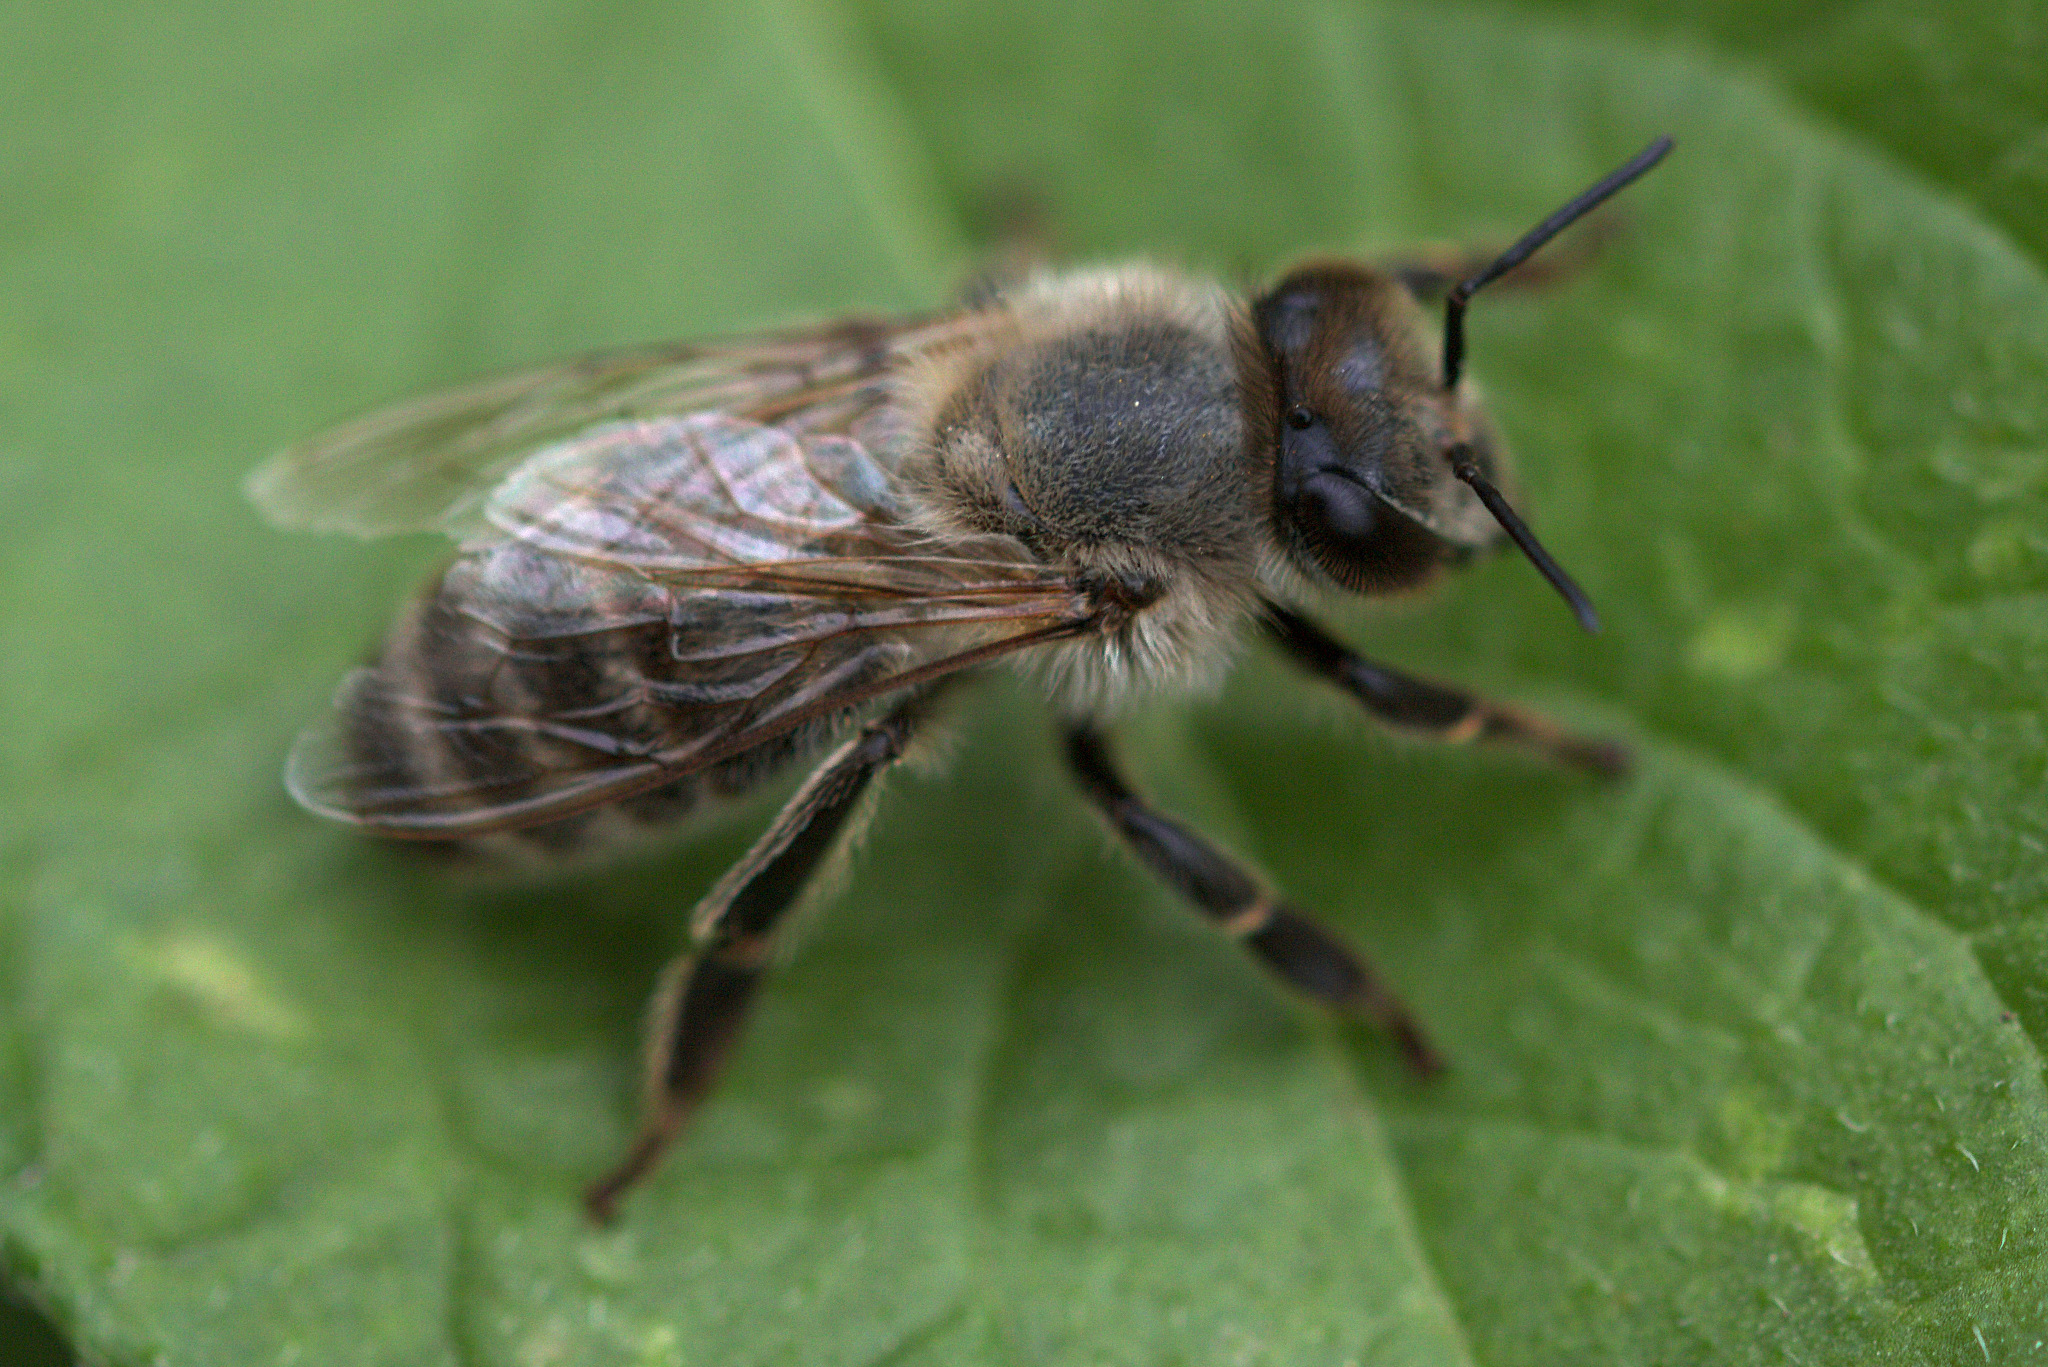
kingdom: Animalia
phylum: Arthropoda
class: Insecta
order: Hymenoptera
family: Apidae
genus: Apis
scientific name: Apis mellifera
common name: Honey bee
